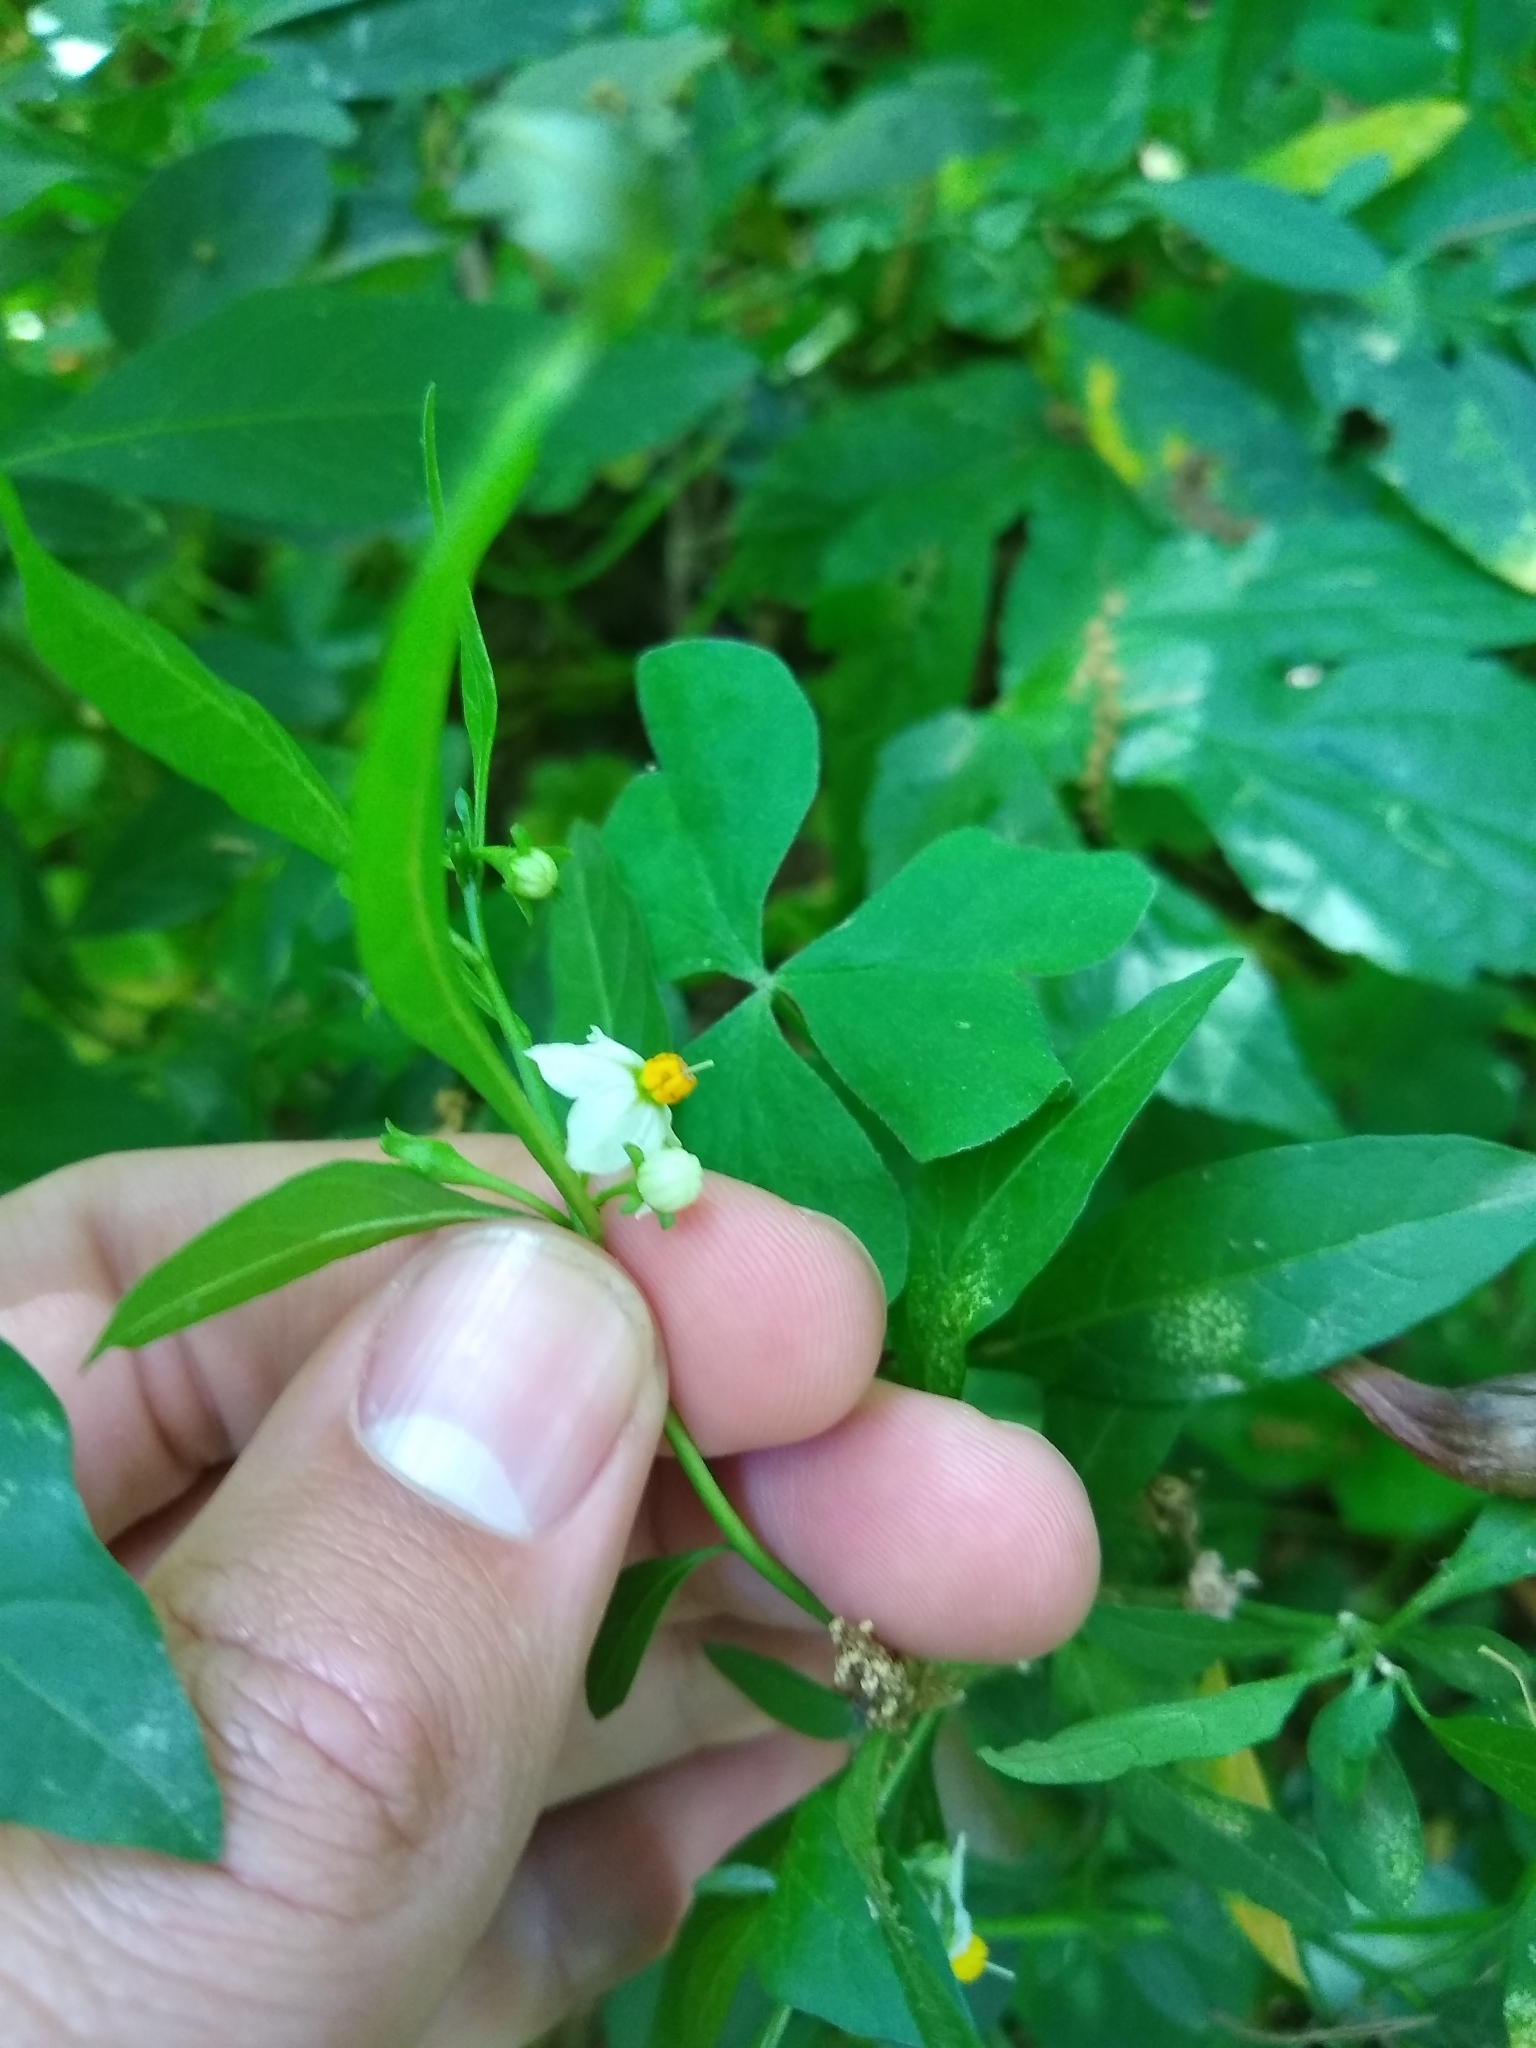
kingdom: Plantae
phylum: Tracheophyta
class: Magnoliopsida
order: Solanales
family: Solanaceae
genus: Solanum
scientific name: Solanum pseudocapsicum
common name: Jerusalem cherry
